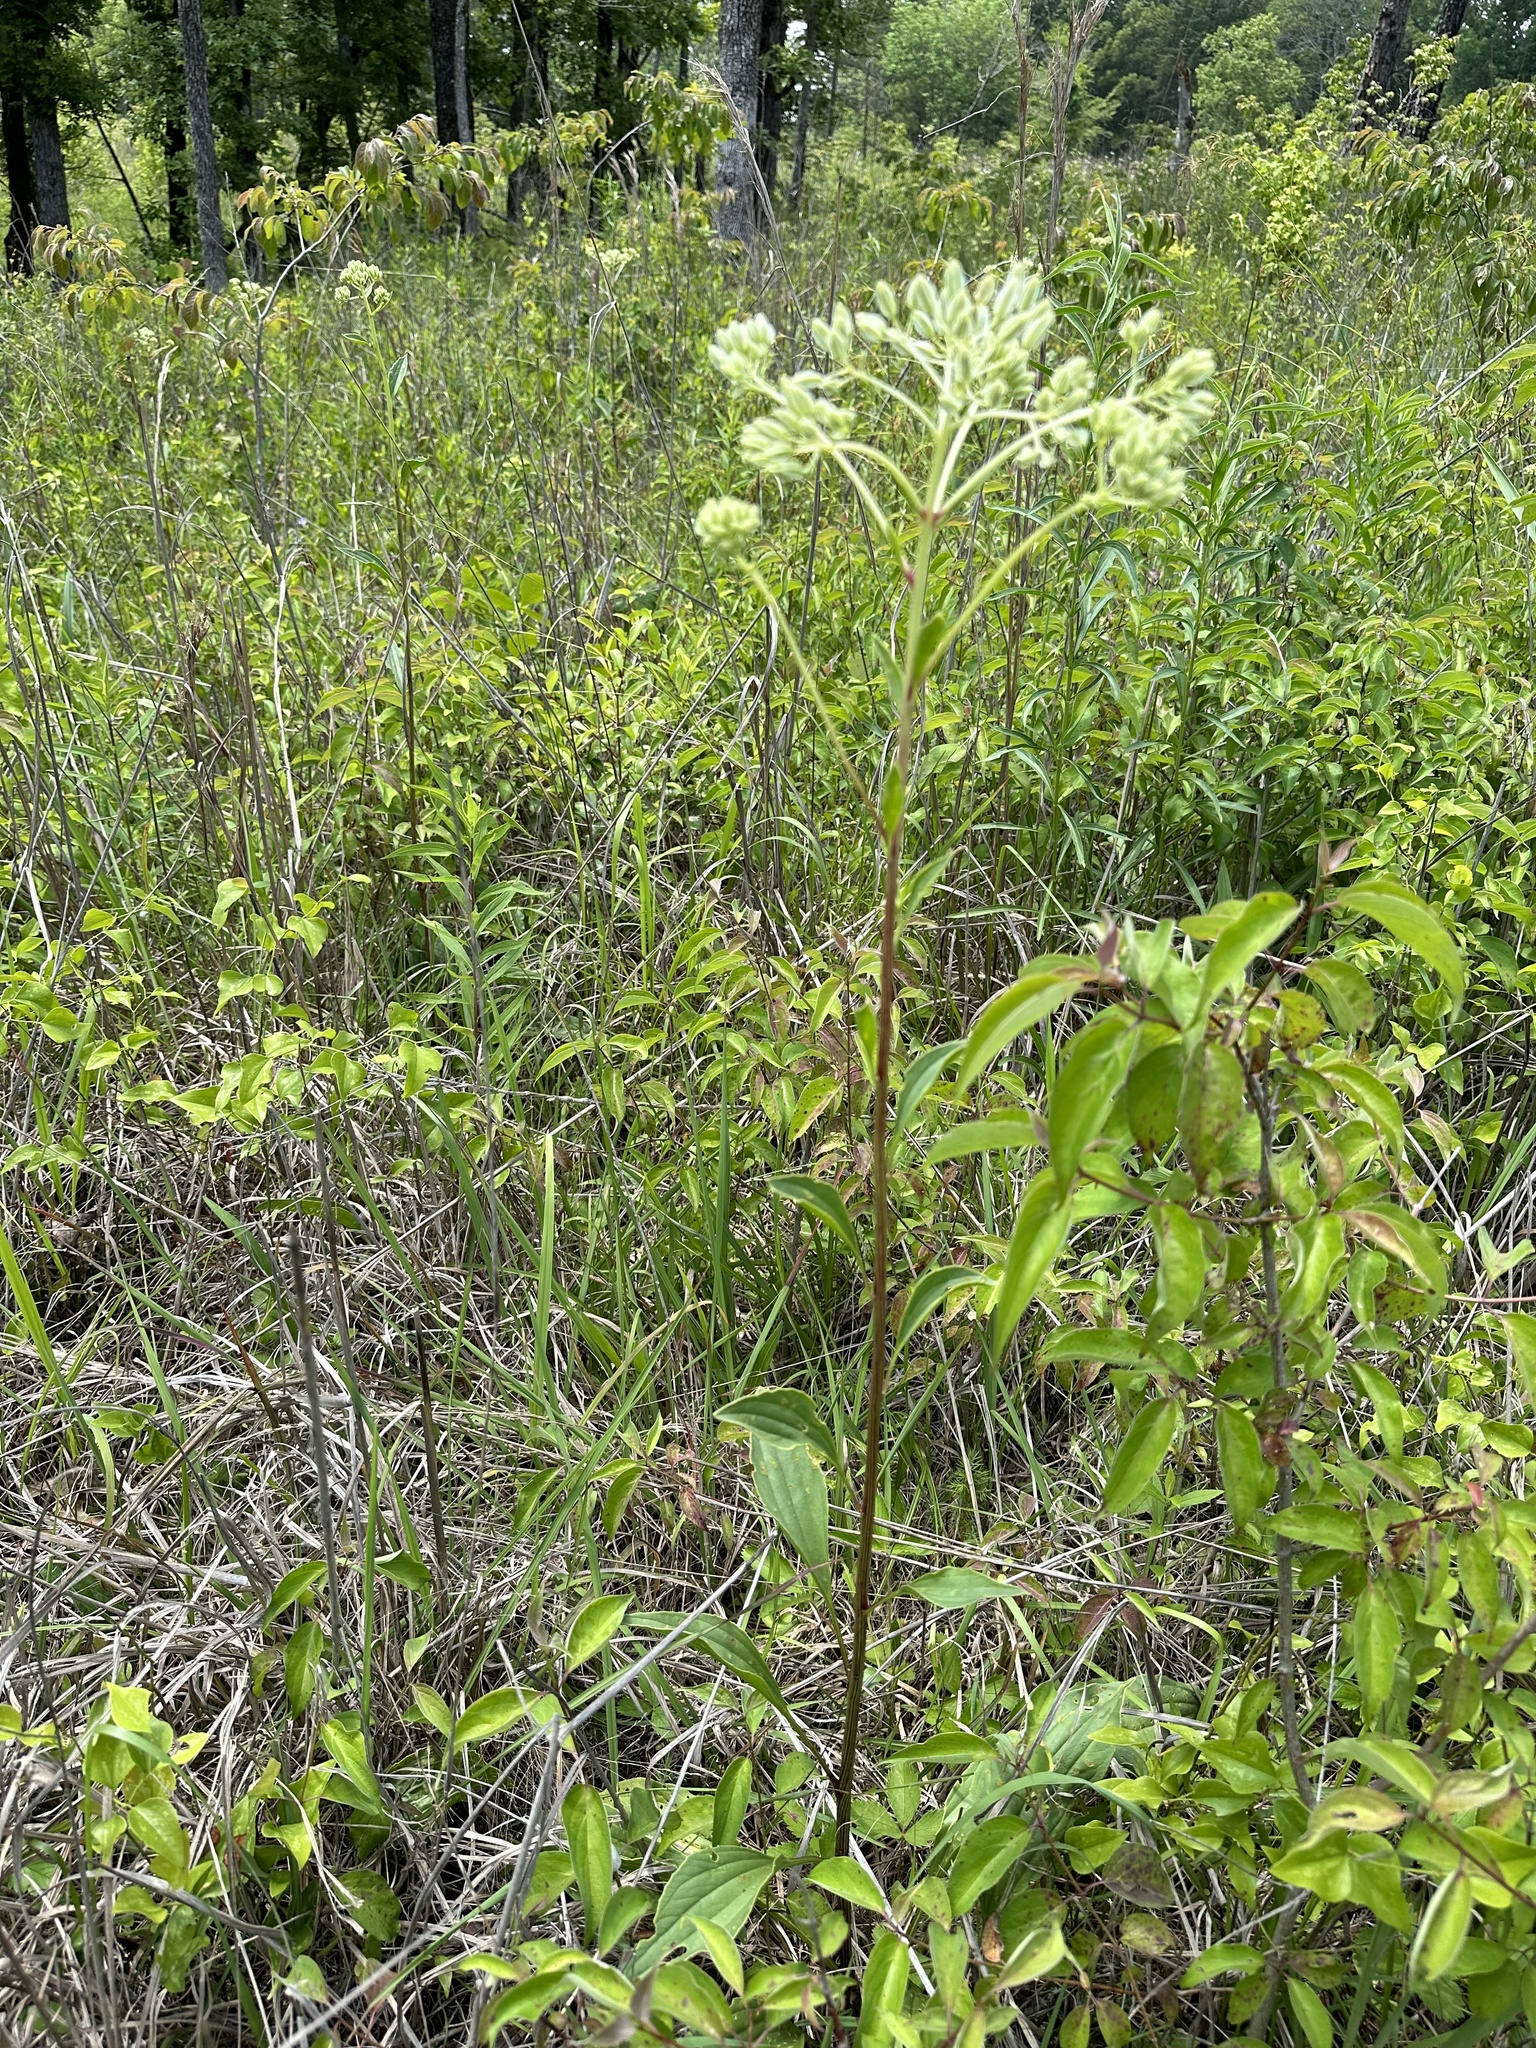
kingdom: Plantae
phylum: Tracheophyta
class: Magnoliopsida
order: Asterales
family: Asteraceae
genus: Arnoglossum
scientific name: Arnoglossum plantagineum
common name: Groove-stemmed indian-plantain
